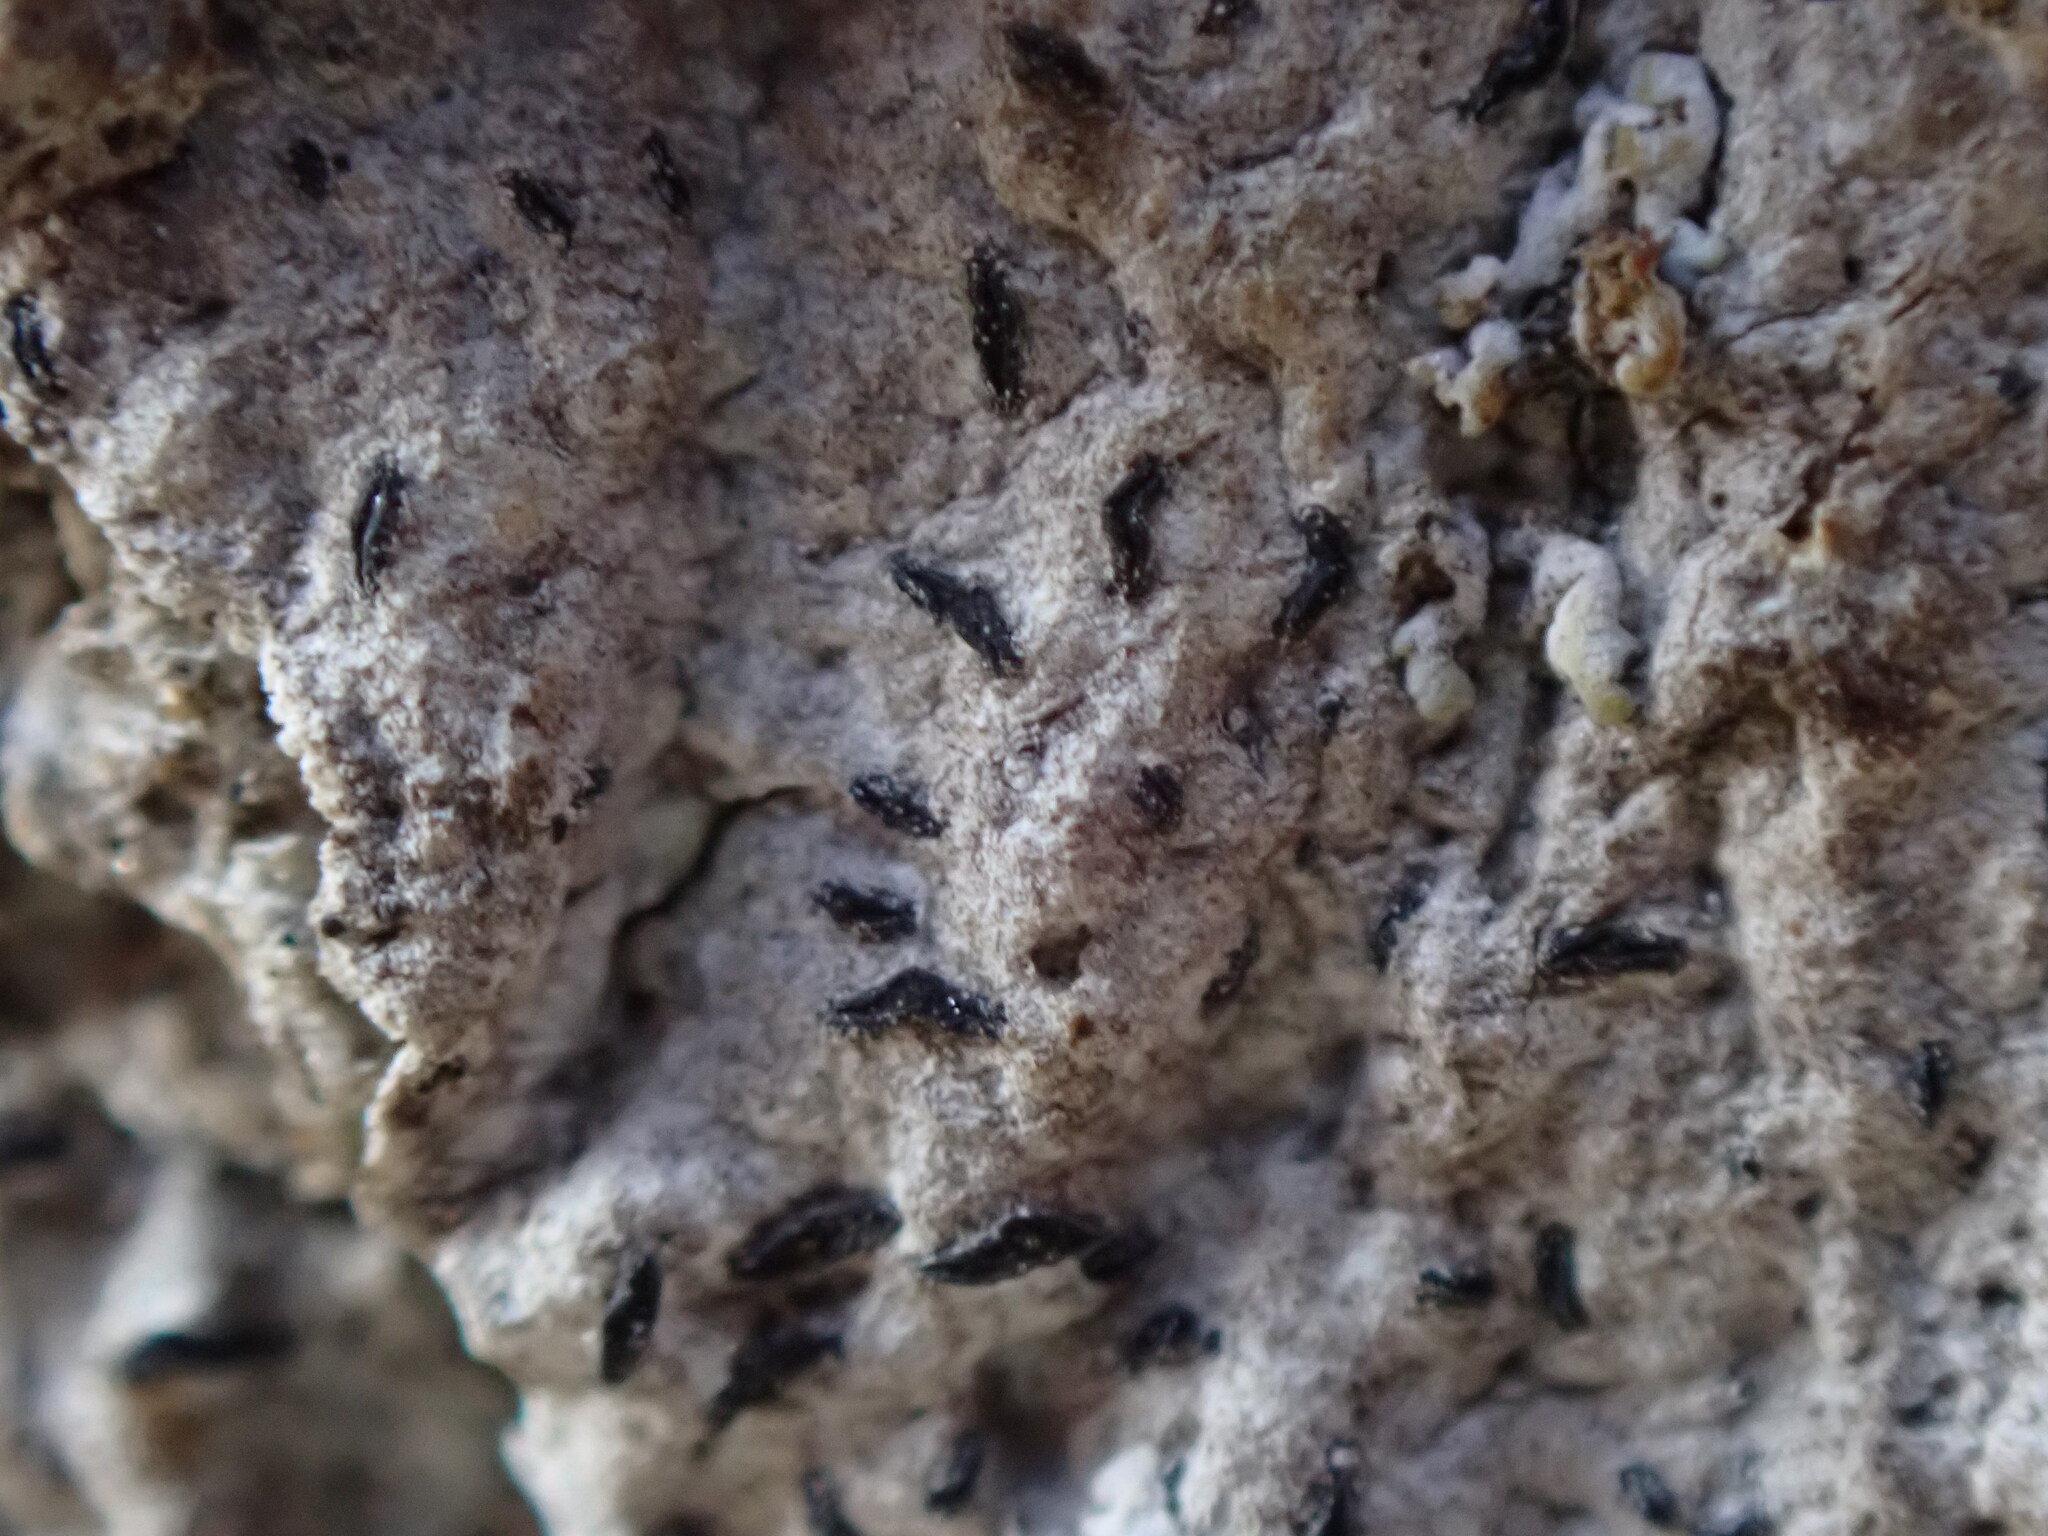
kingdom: Fungi
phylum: Ascomycota
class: Arthoniomycetes
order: Arthoniales
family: Lecanographaceae
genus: Alyxoria
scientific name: Alyxoria culmigena
